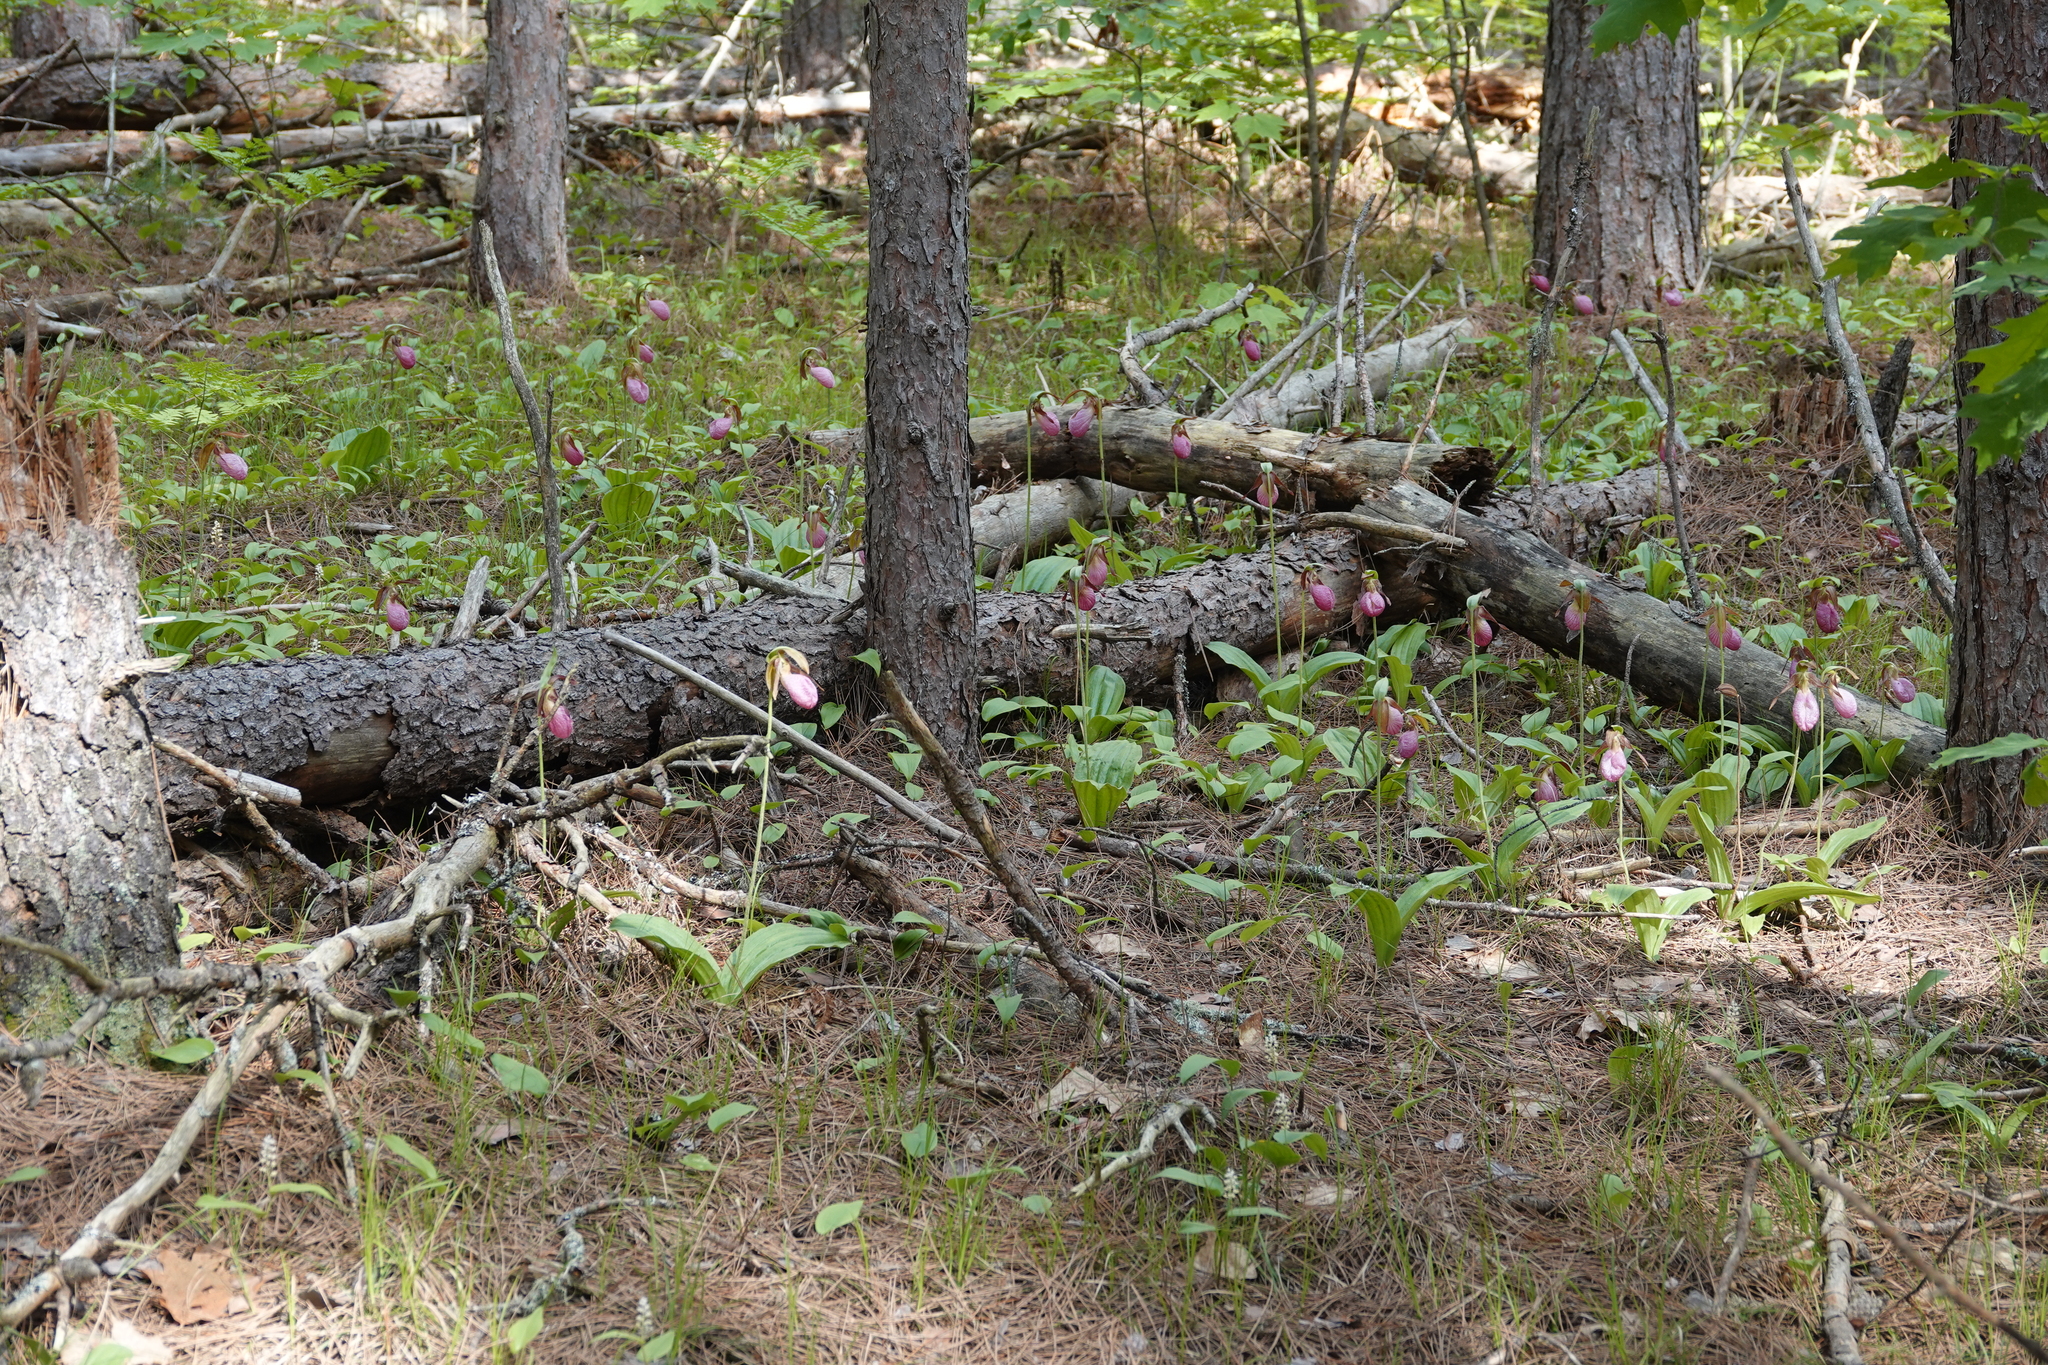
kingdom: Plantae
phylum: Tracheophyta
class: Liliopsida
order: Asparagales
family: Orchidaceae
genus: Cypripedium
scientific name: Cypripedium acaule
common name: Pink lady's-slipper
